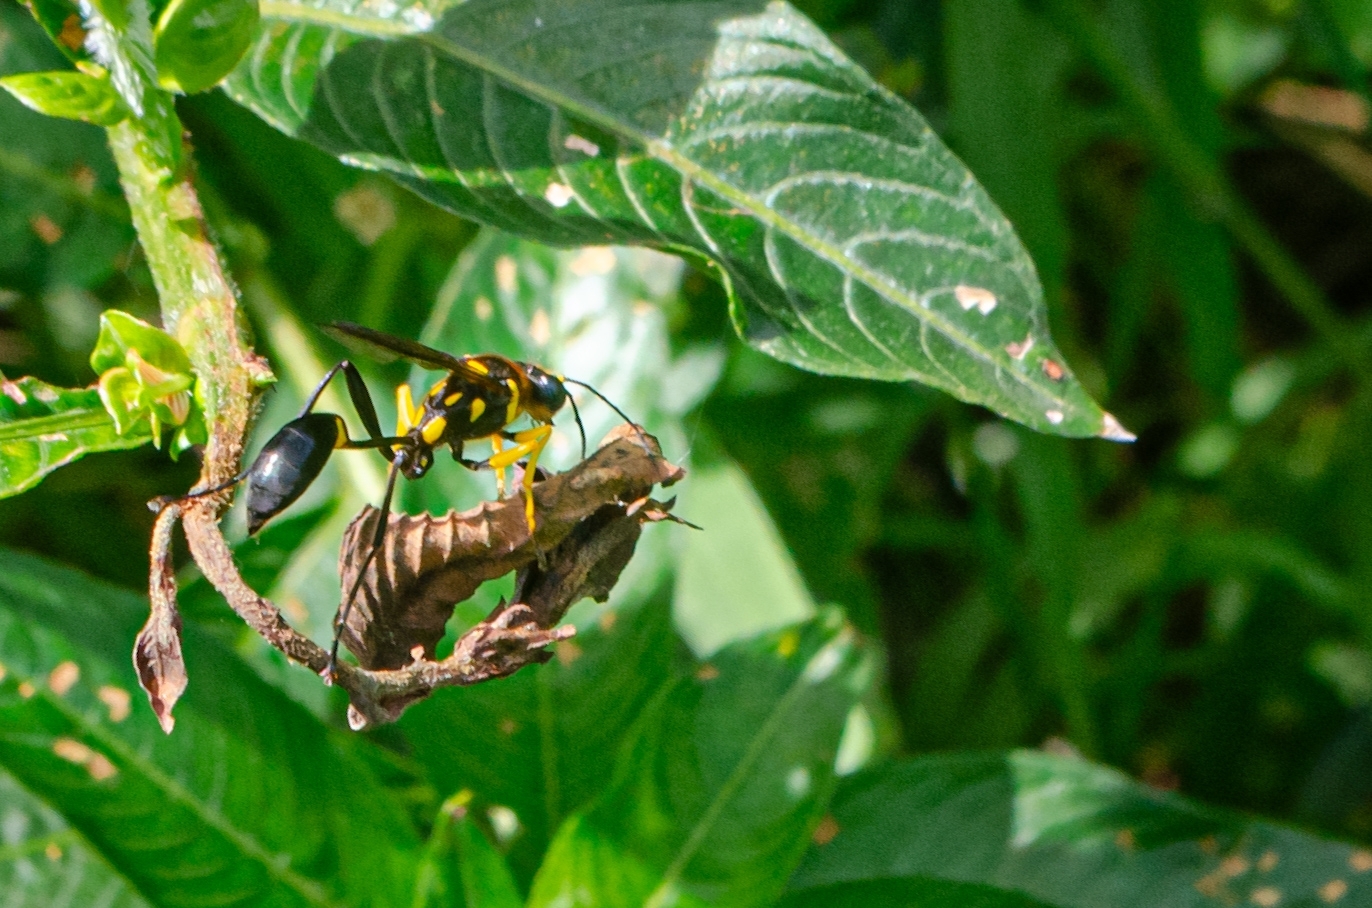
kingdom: Animalia
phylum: Arthropoda
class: Insecta
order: Hymenoptera
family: Sphecidae
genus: Sceliphron
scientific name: Sceliphron fistularium
